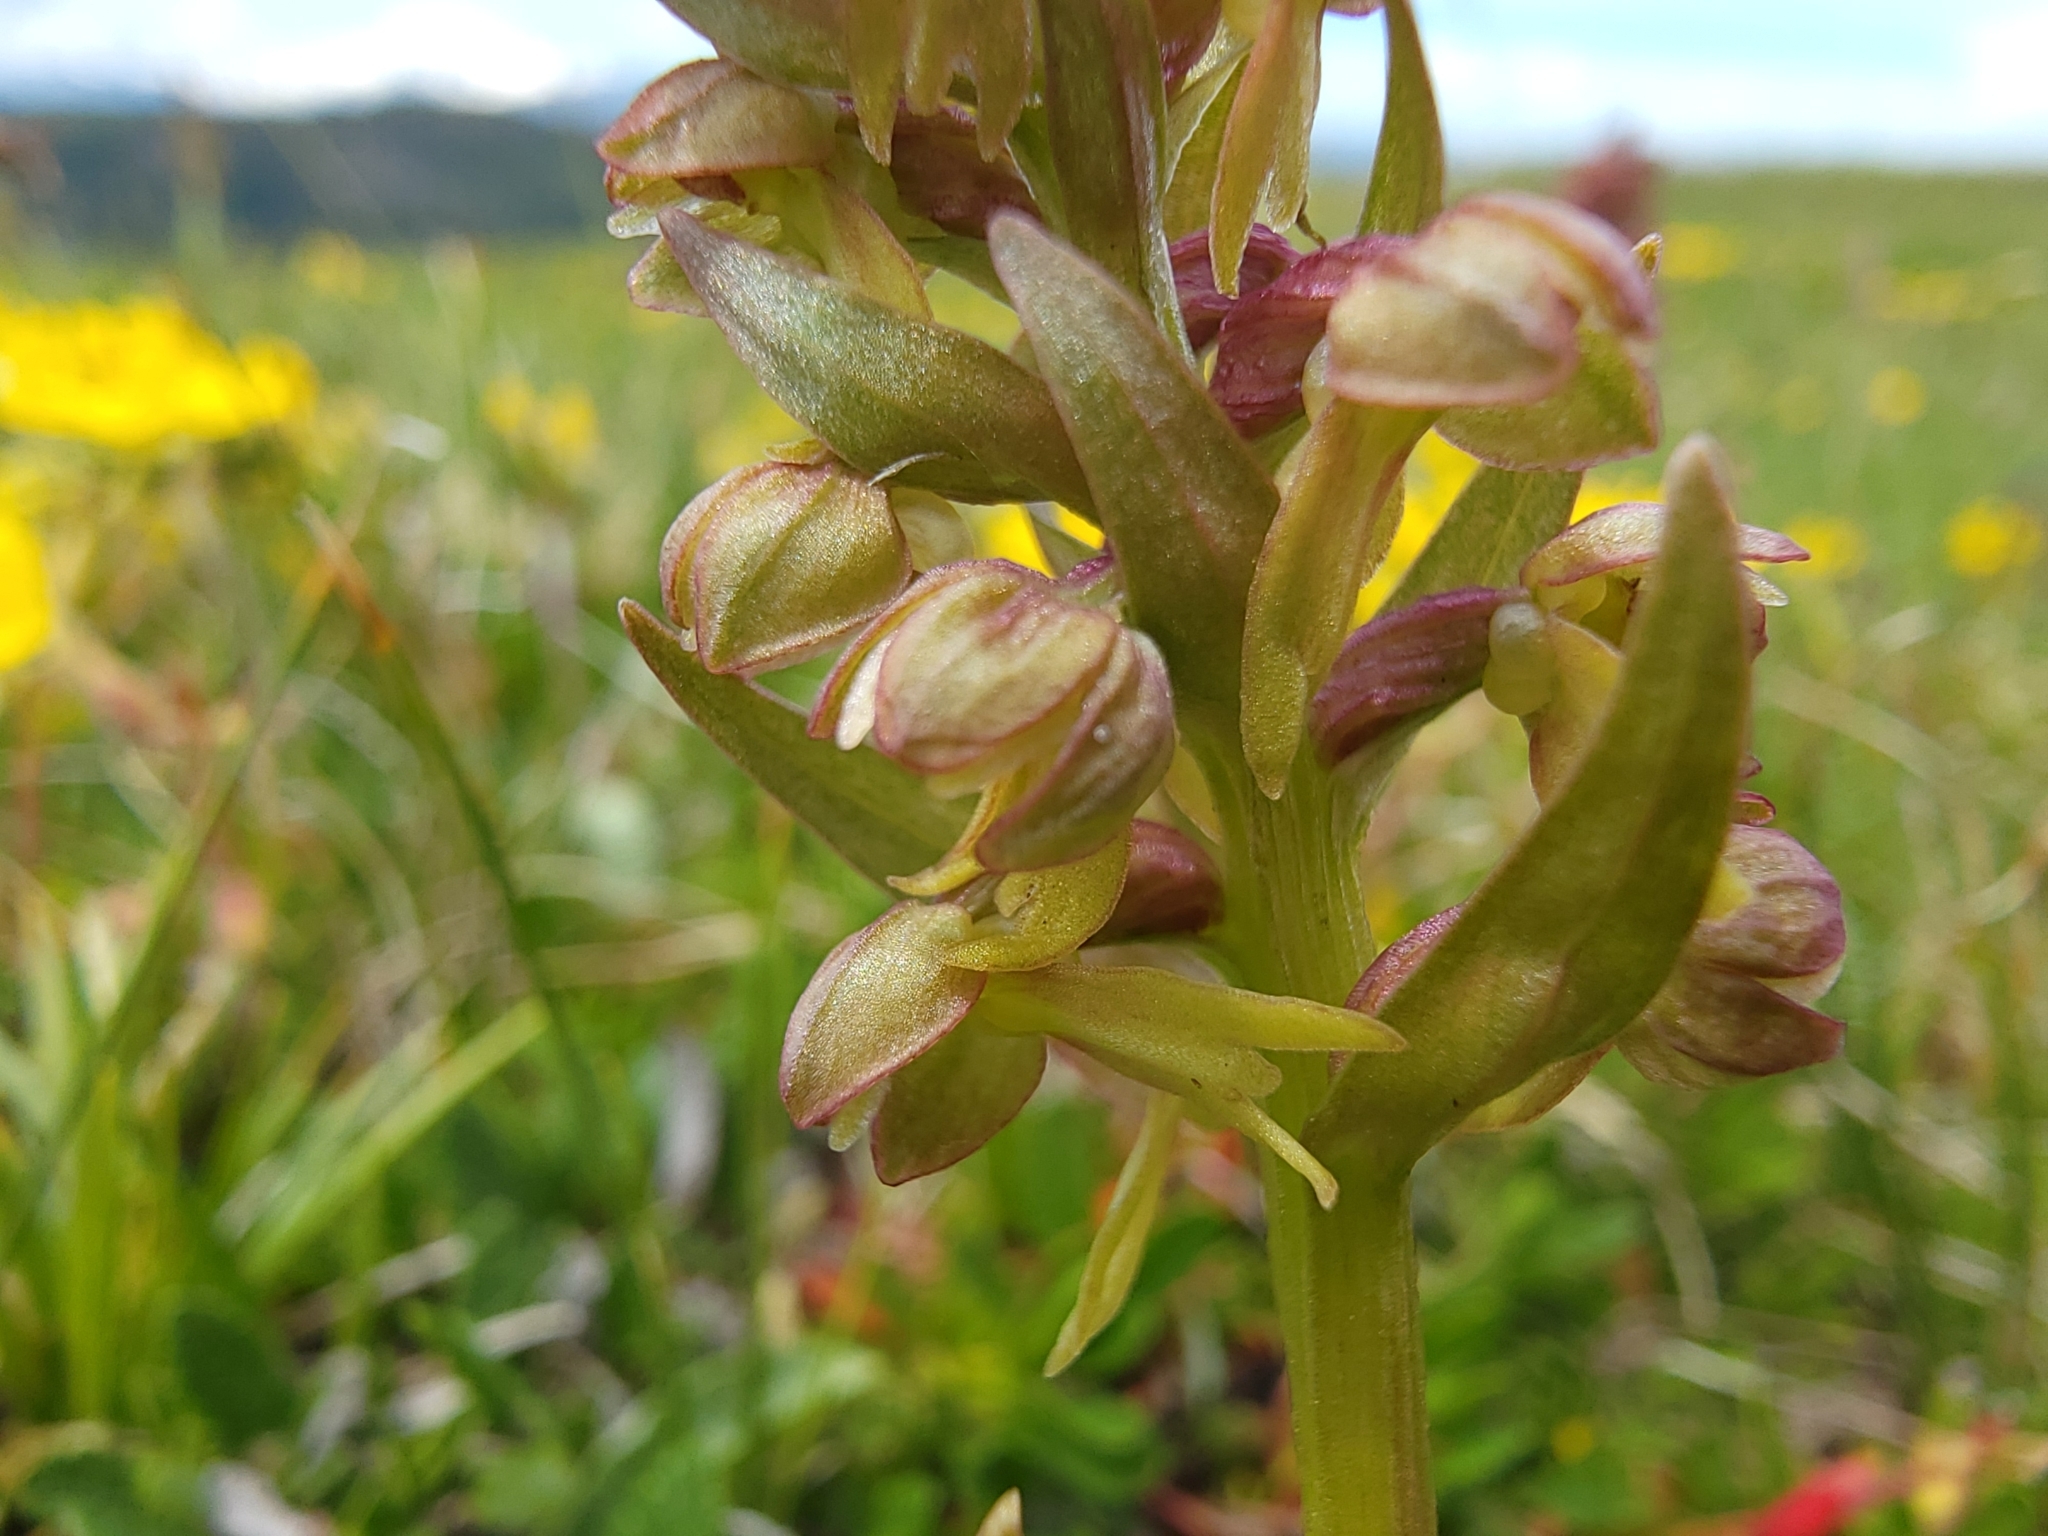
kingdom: Plantae
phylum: Tracheophyta
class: Liliopsida
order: Asparagales
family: Orchidaceae
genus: Dactylorhiza
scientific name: Dactylorhiza viridis
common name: Longbract frog orchid
